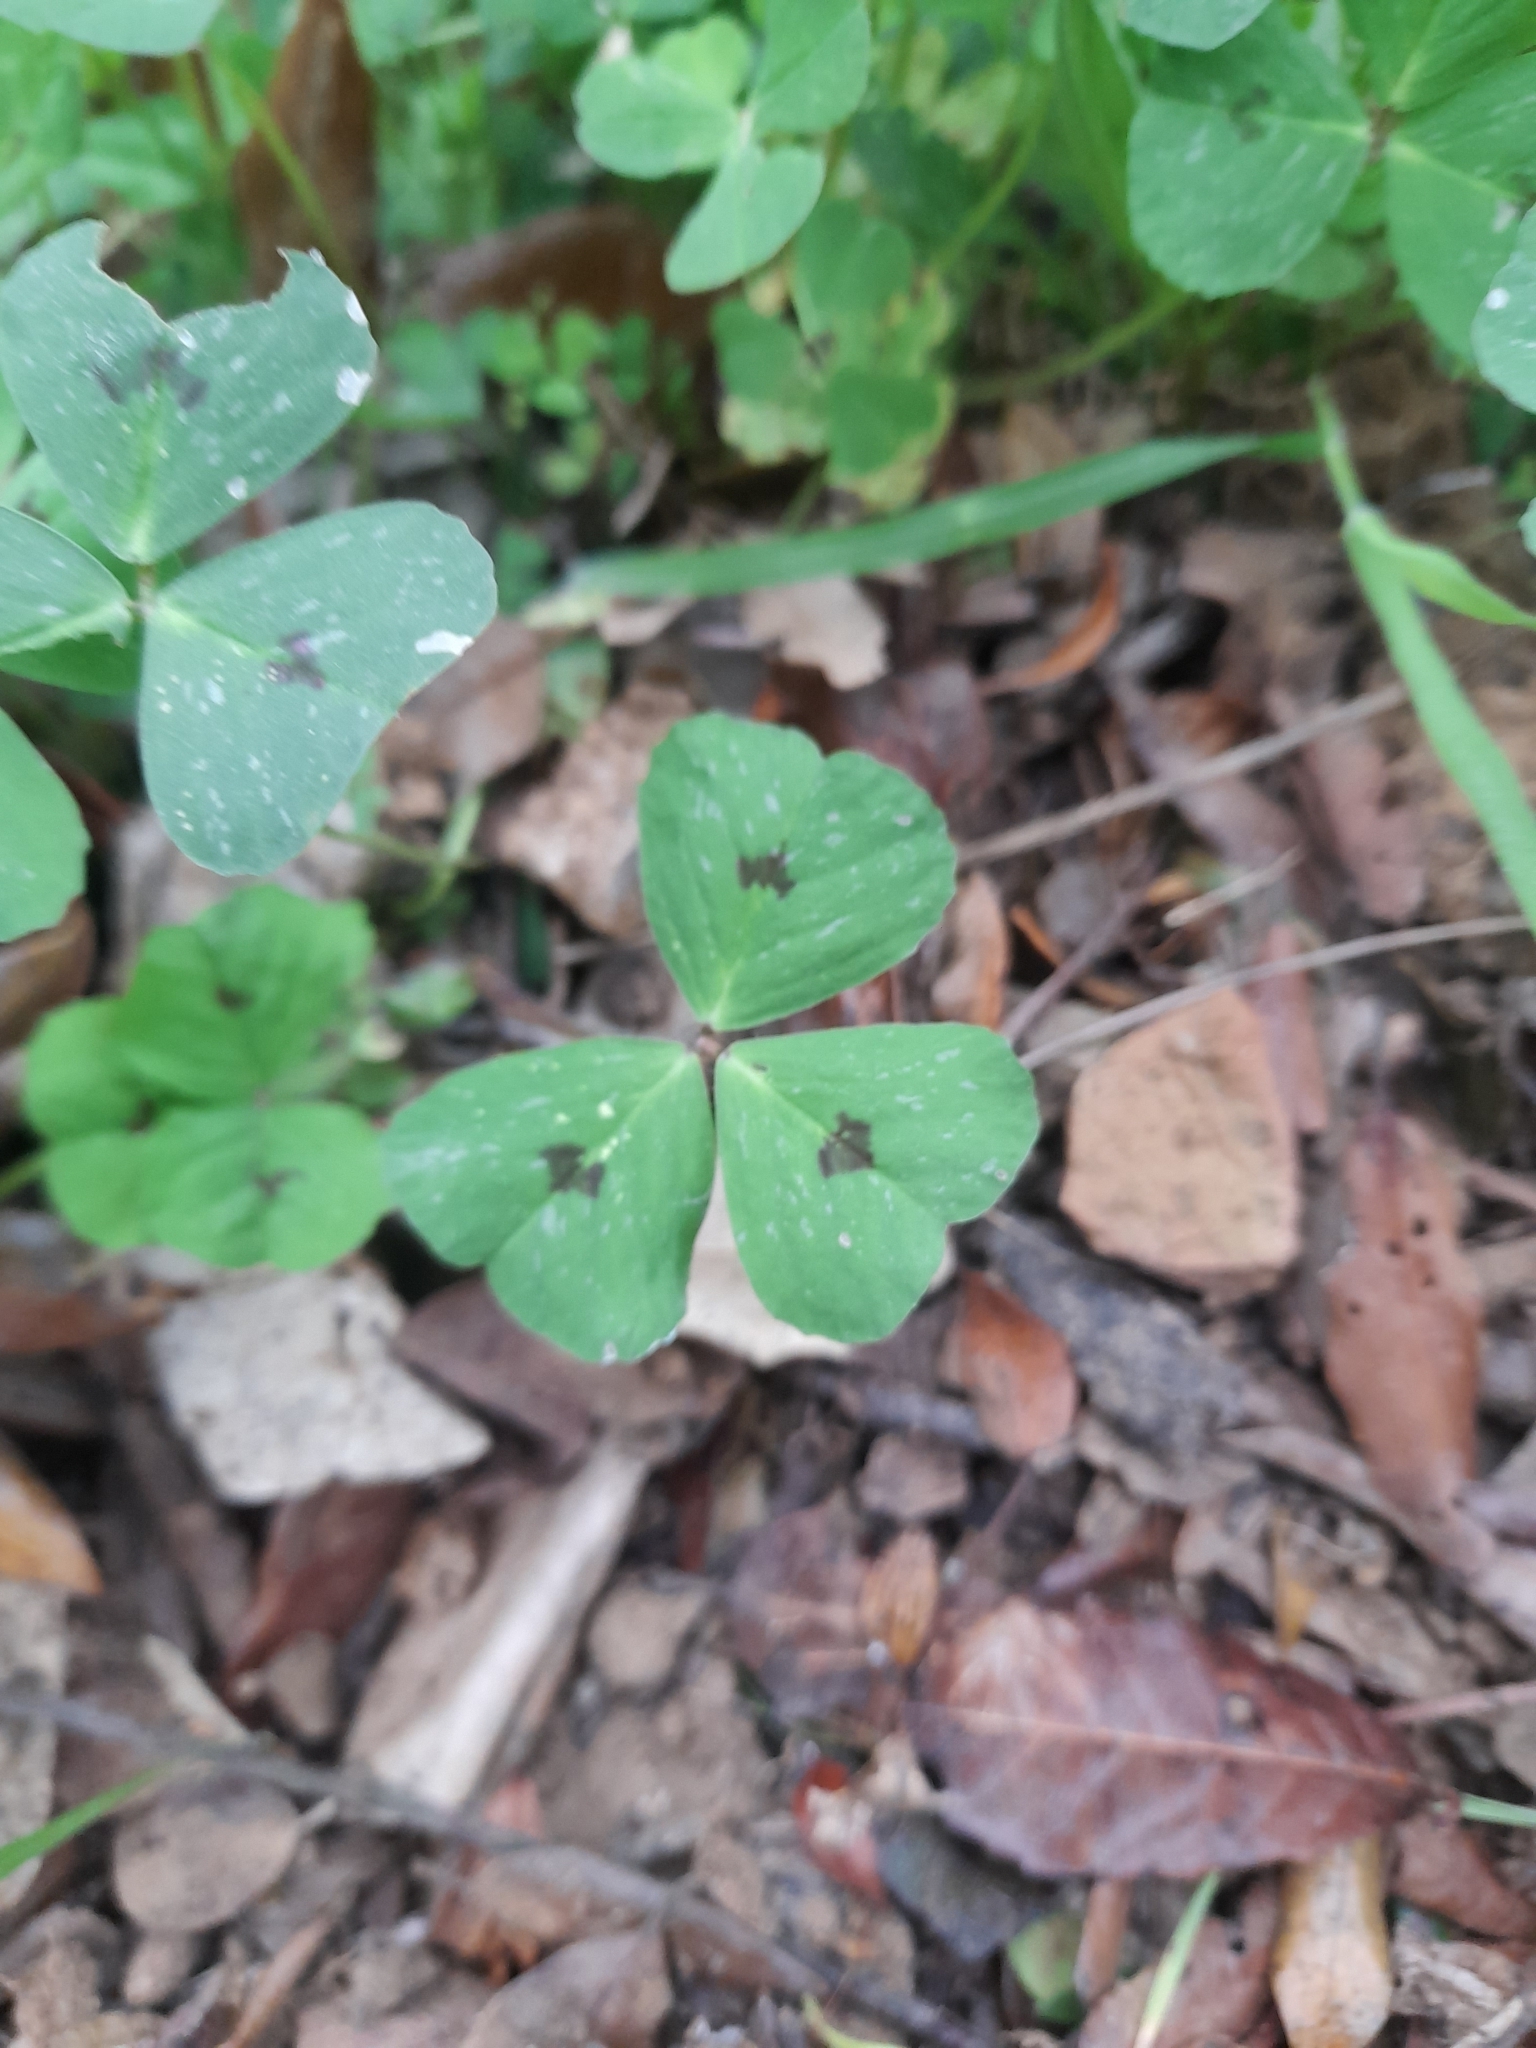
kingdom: Plantae
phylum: Tracheophyta
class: Magnoliopsida
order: Fabales
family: Fabaceae
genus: Medicago
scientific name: Medicago arabica
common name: Spotted medick
